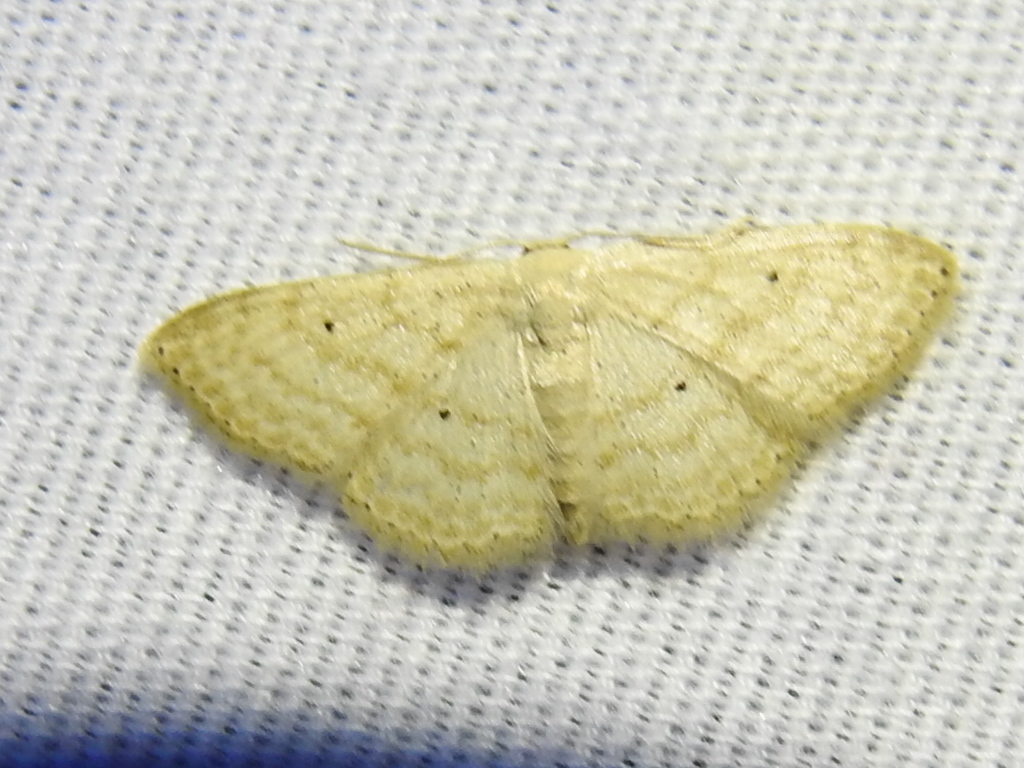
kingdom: Animalia
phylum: Arthropoda
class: Insecta
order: Lepidoptera
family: Geometridae
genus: Scopula
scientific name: Scopula benitaria
